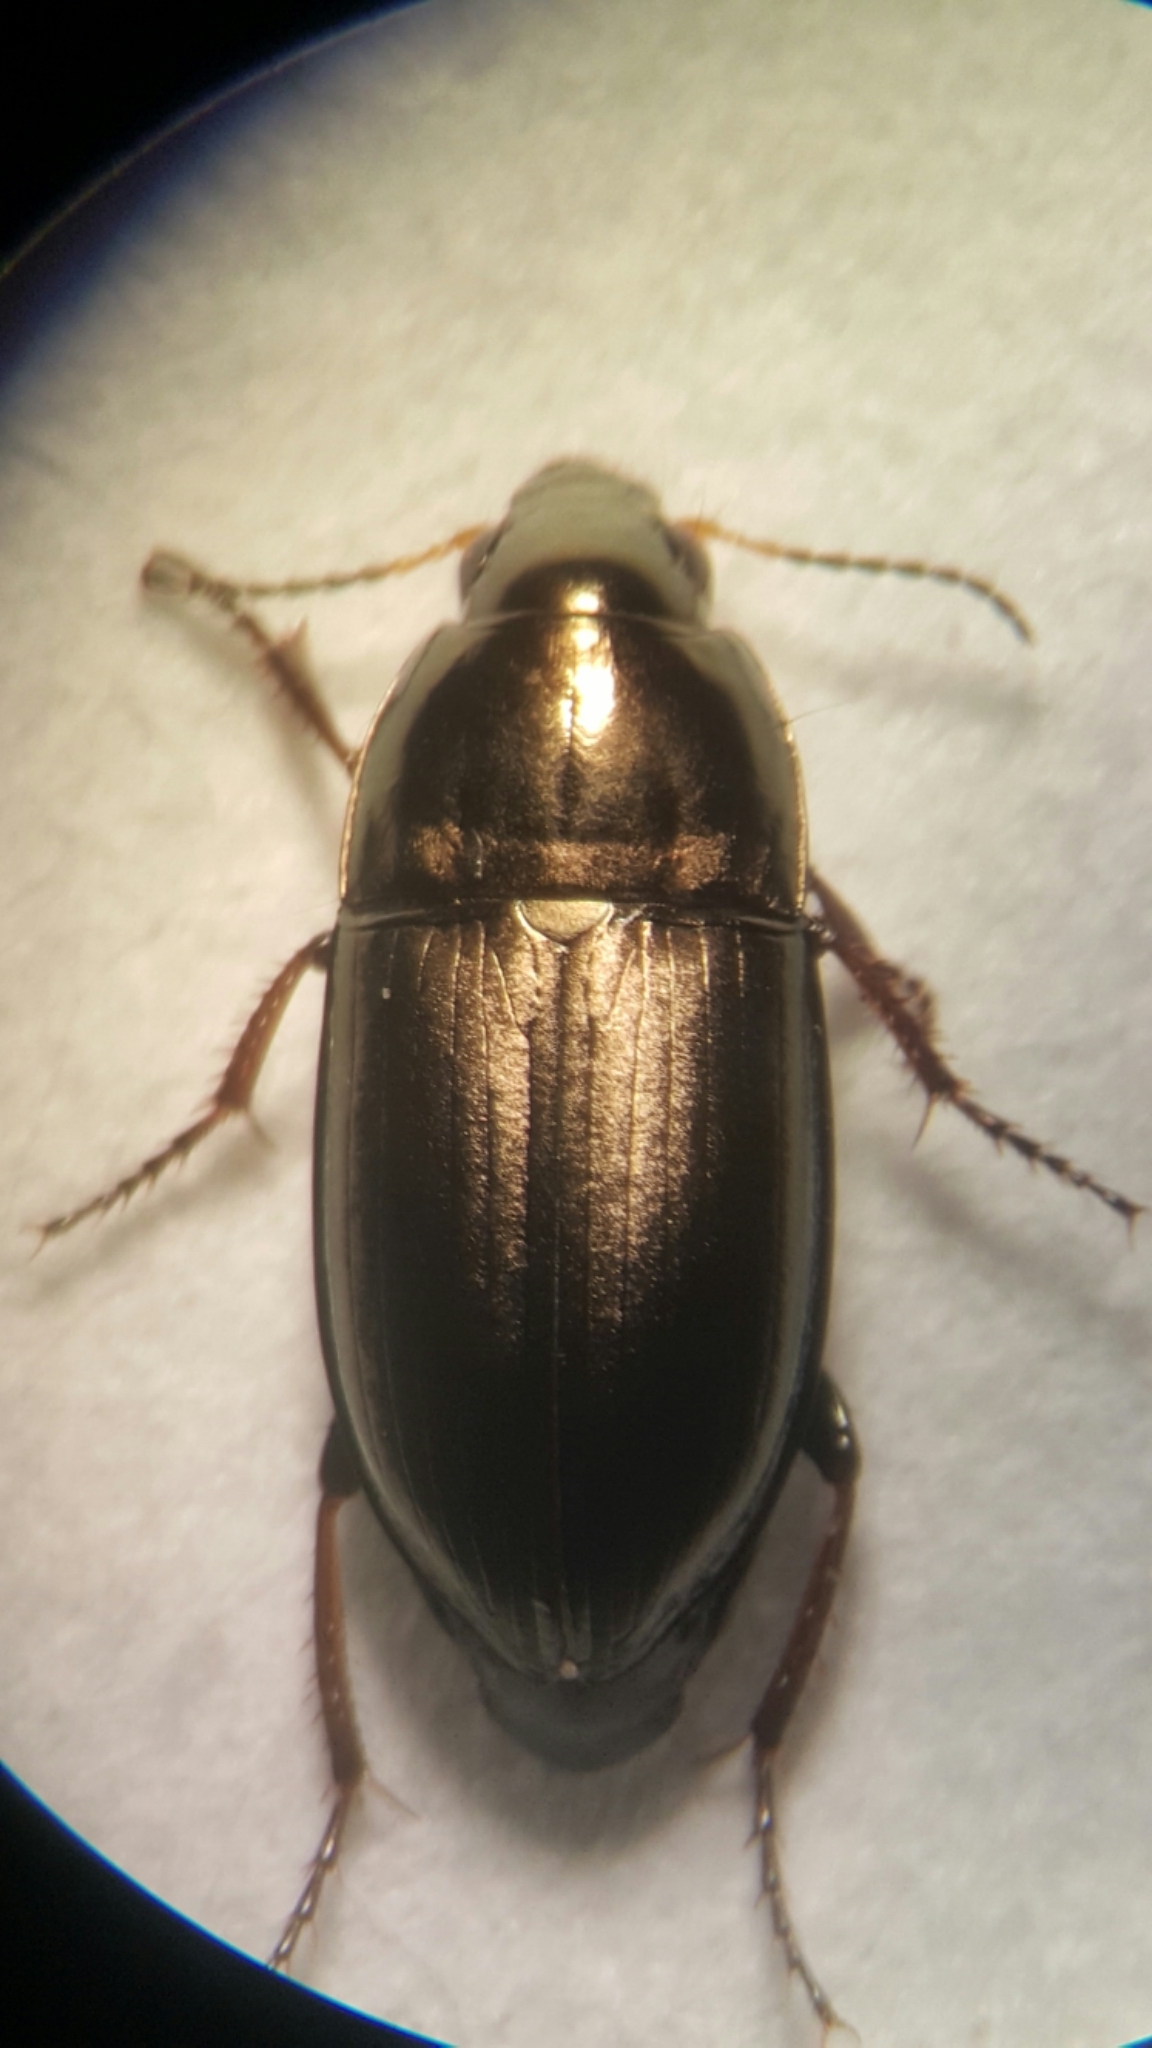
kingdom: Animalia
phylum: Arthropoda
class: Insecta
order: Coleoptera
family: Carabidae
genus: Amara
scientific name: Amara aenea
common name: Common sun beetle
